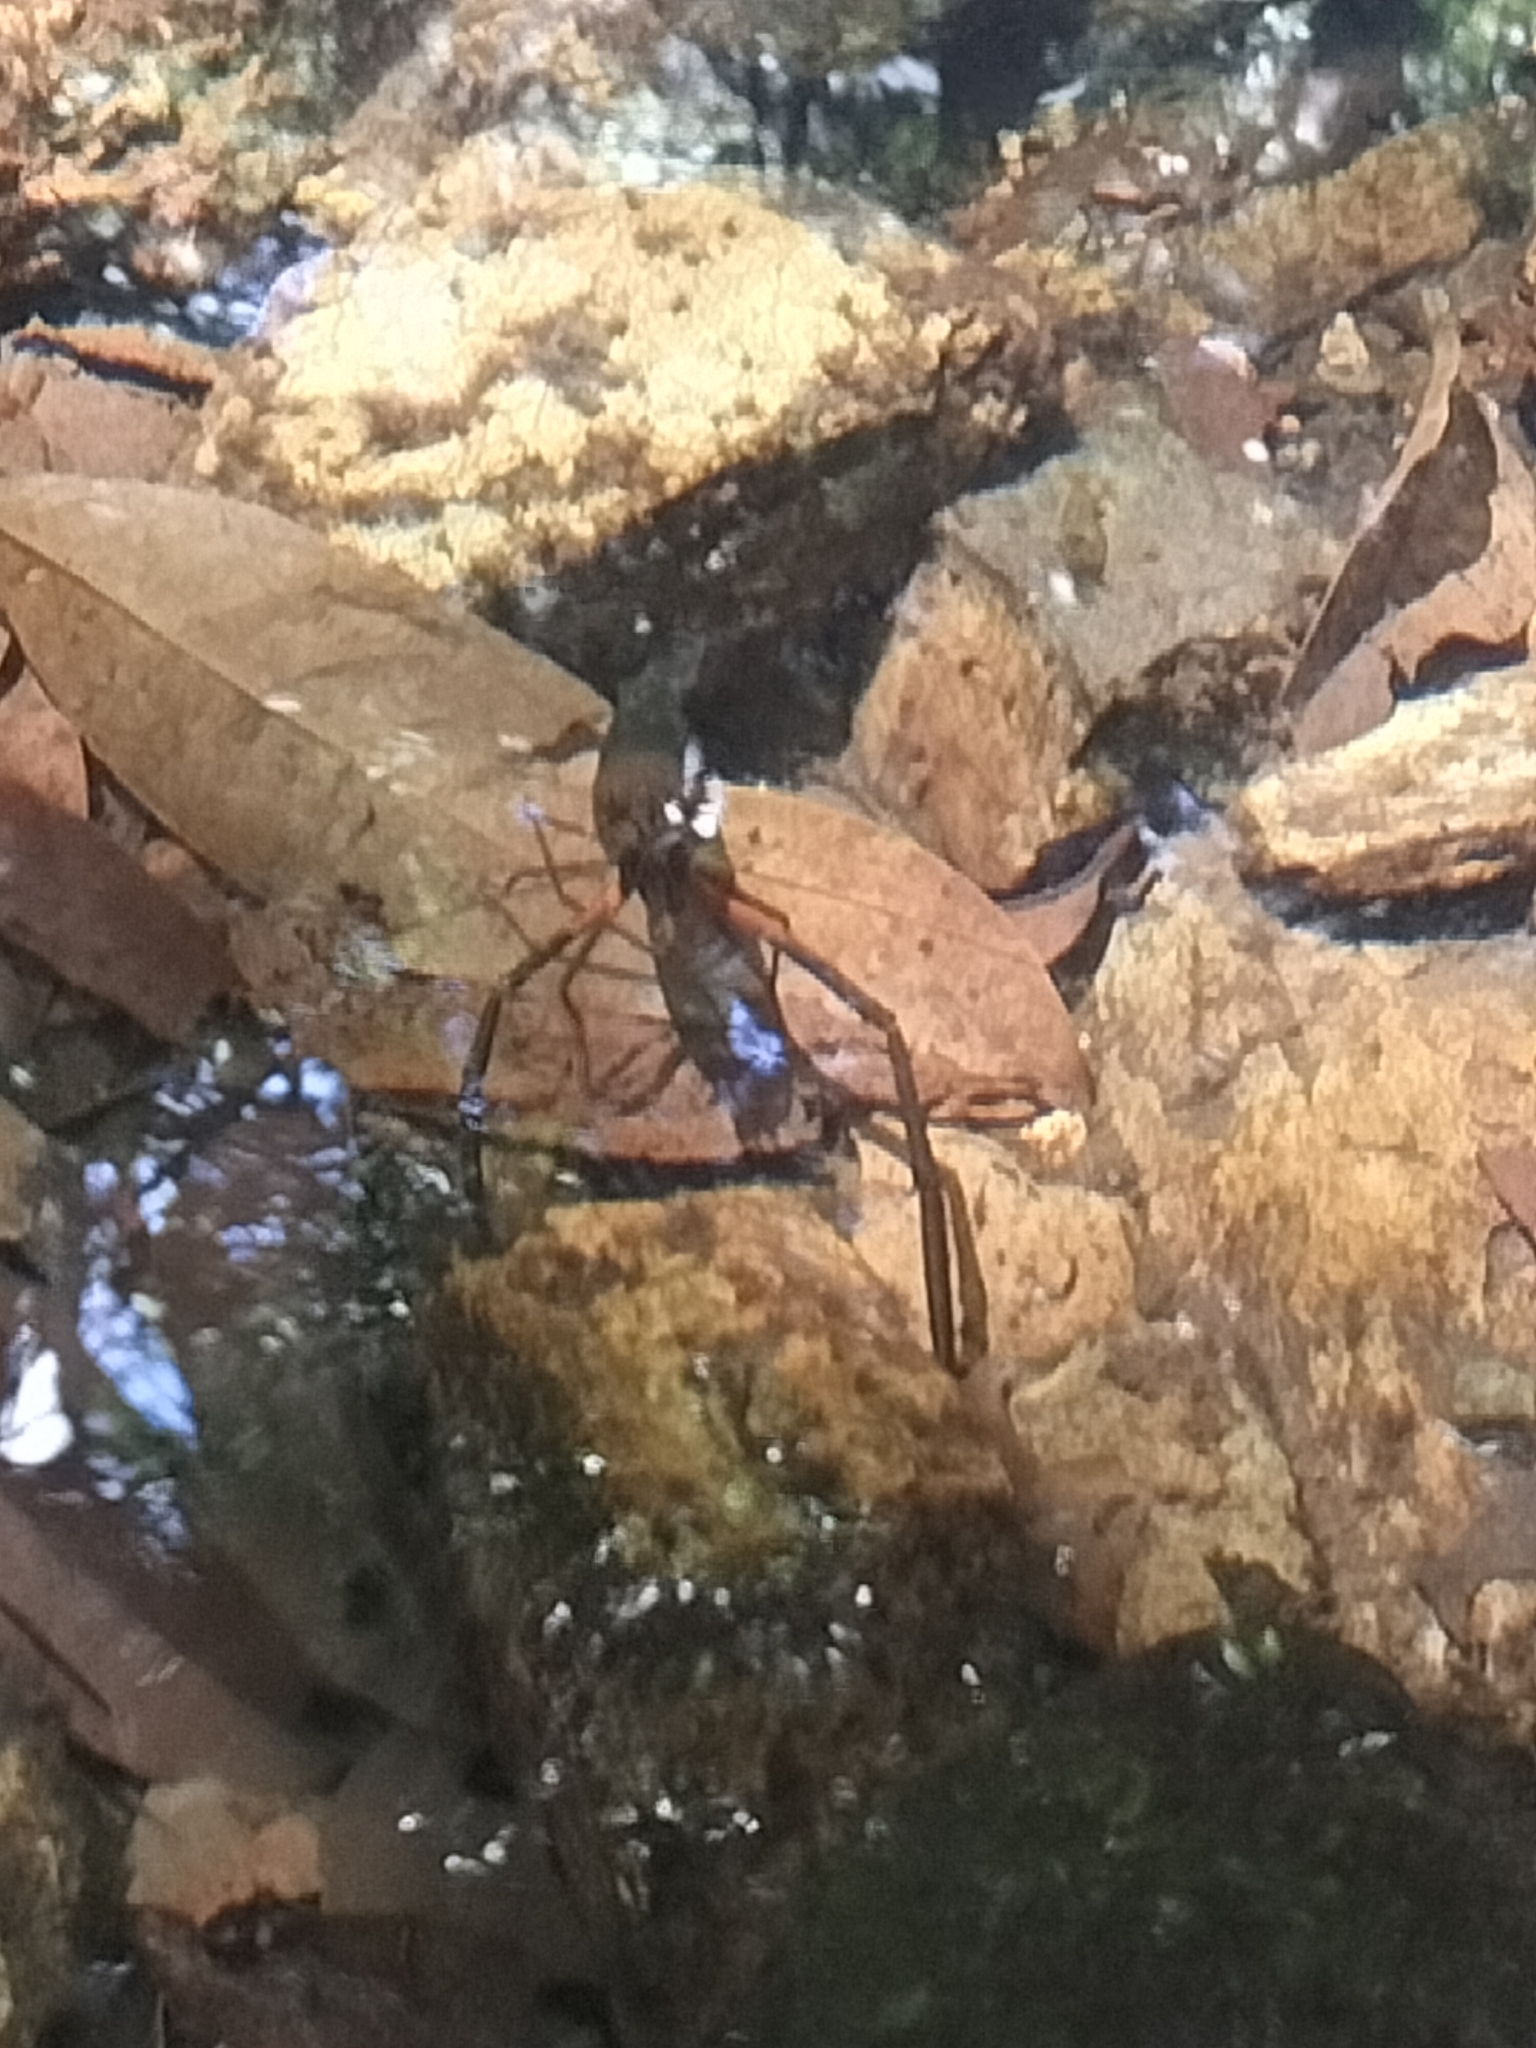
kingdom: Animalia
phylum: Arthropoda
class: Malacostraca
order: Decapoda
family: Palaemonidae
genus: Macrobrachium
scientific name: Macrobrachium tolmerum
